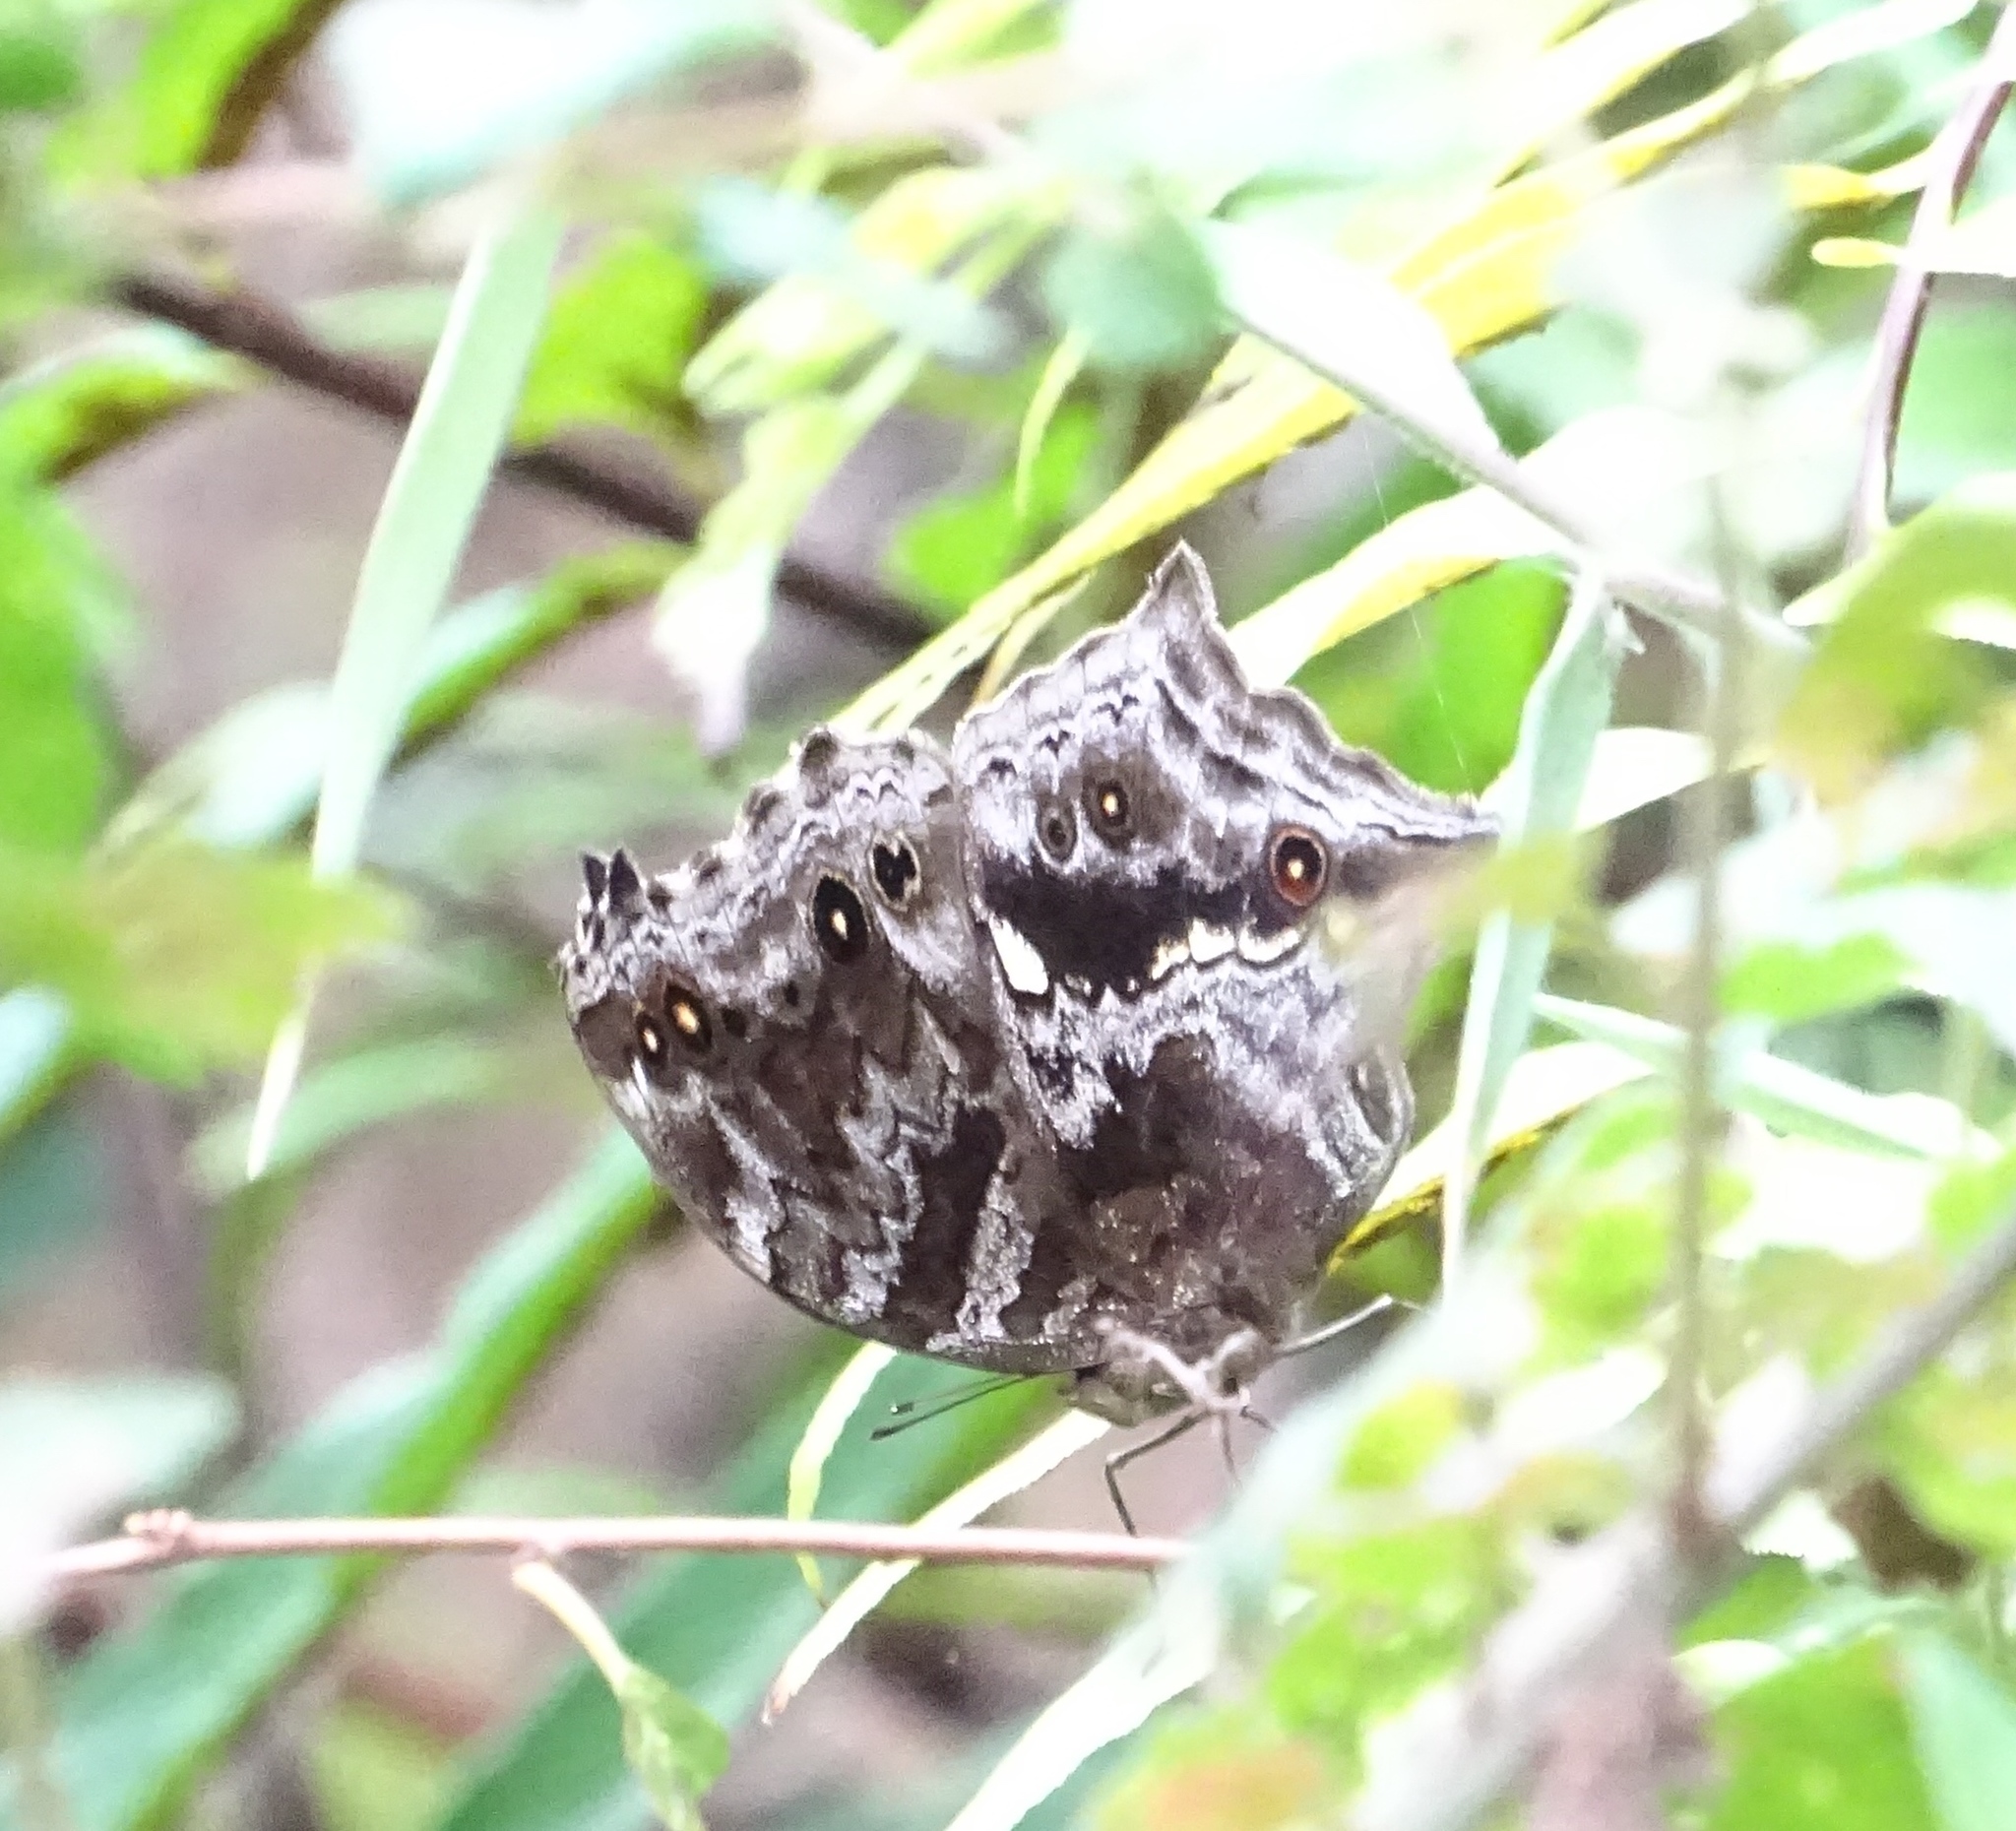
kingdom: Animalia
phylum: Arthropoda
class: Insecta
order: Lepidoptera
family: Nymphalidae
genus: Junonia
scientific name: Junonia
